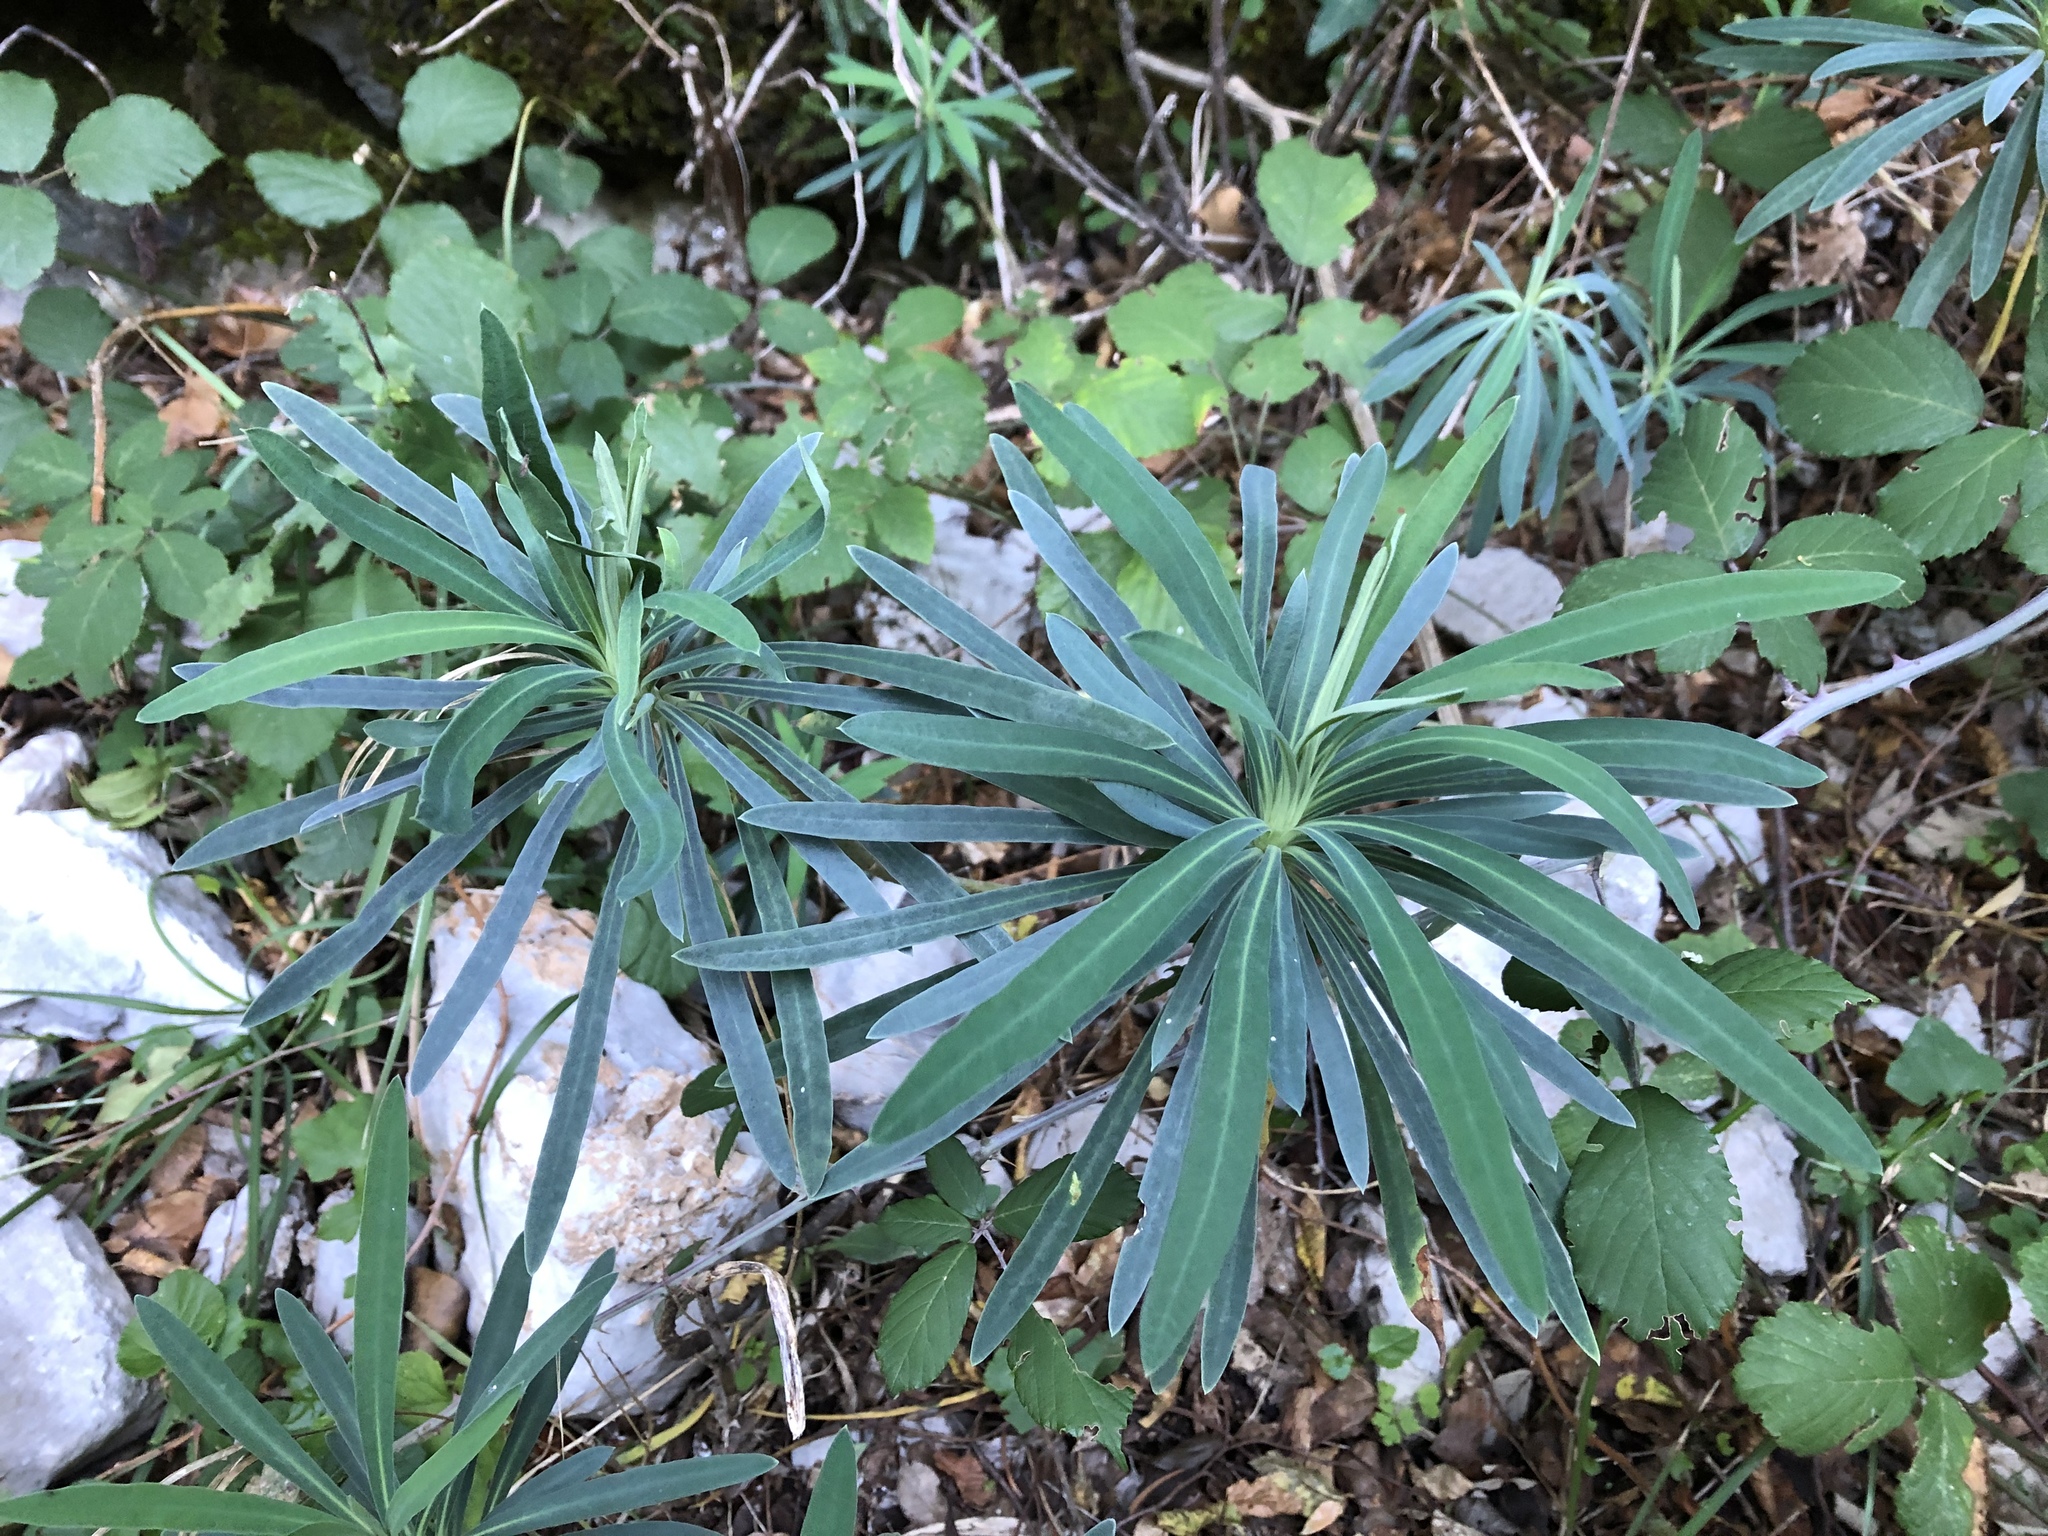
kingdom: Plantae
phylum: Tracheophyta
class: Magnoliopsida
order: Malpighiales
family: Euphorbiaceae
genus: Euphorbia
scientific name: Euphorbia characias
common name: Mediterranean spurge
